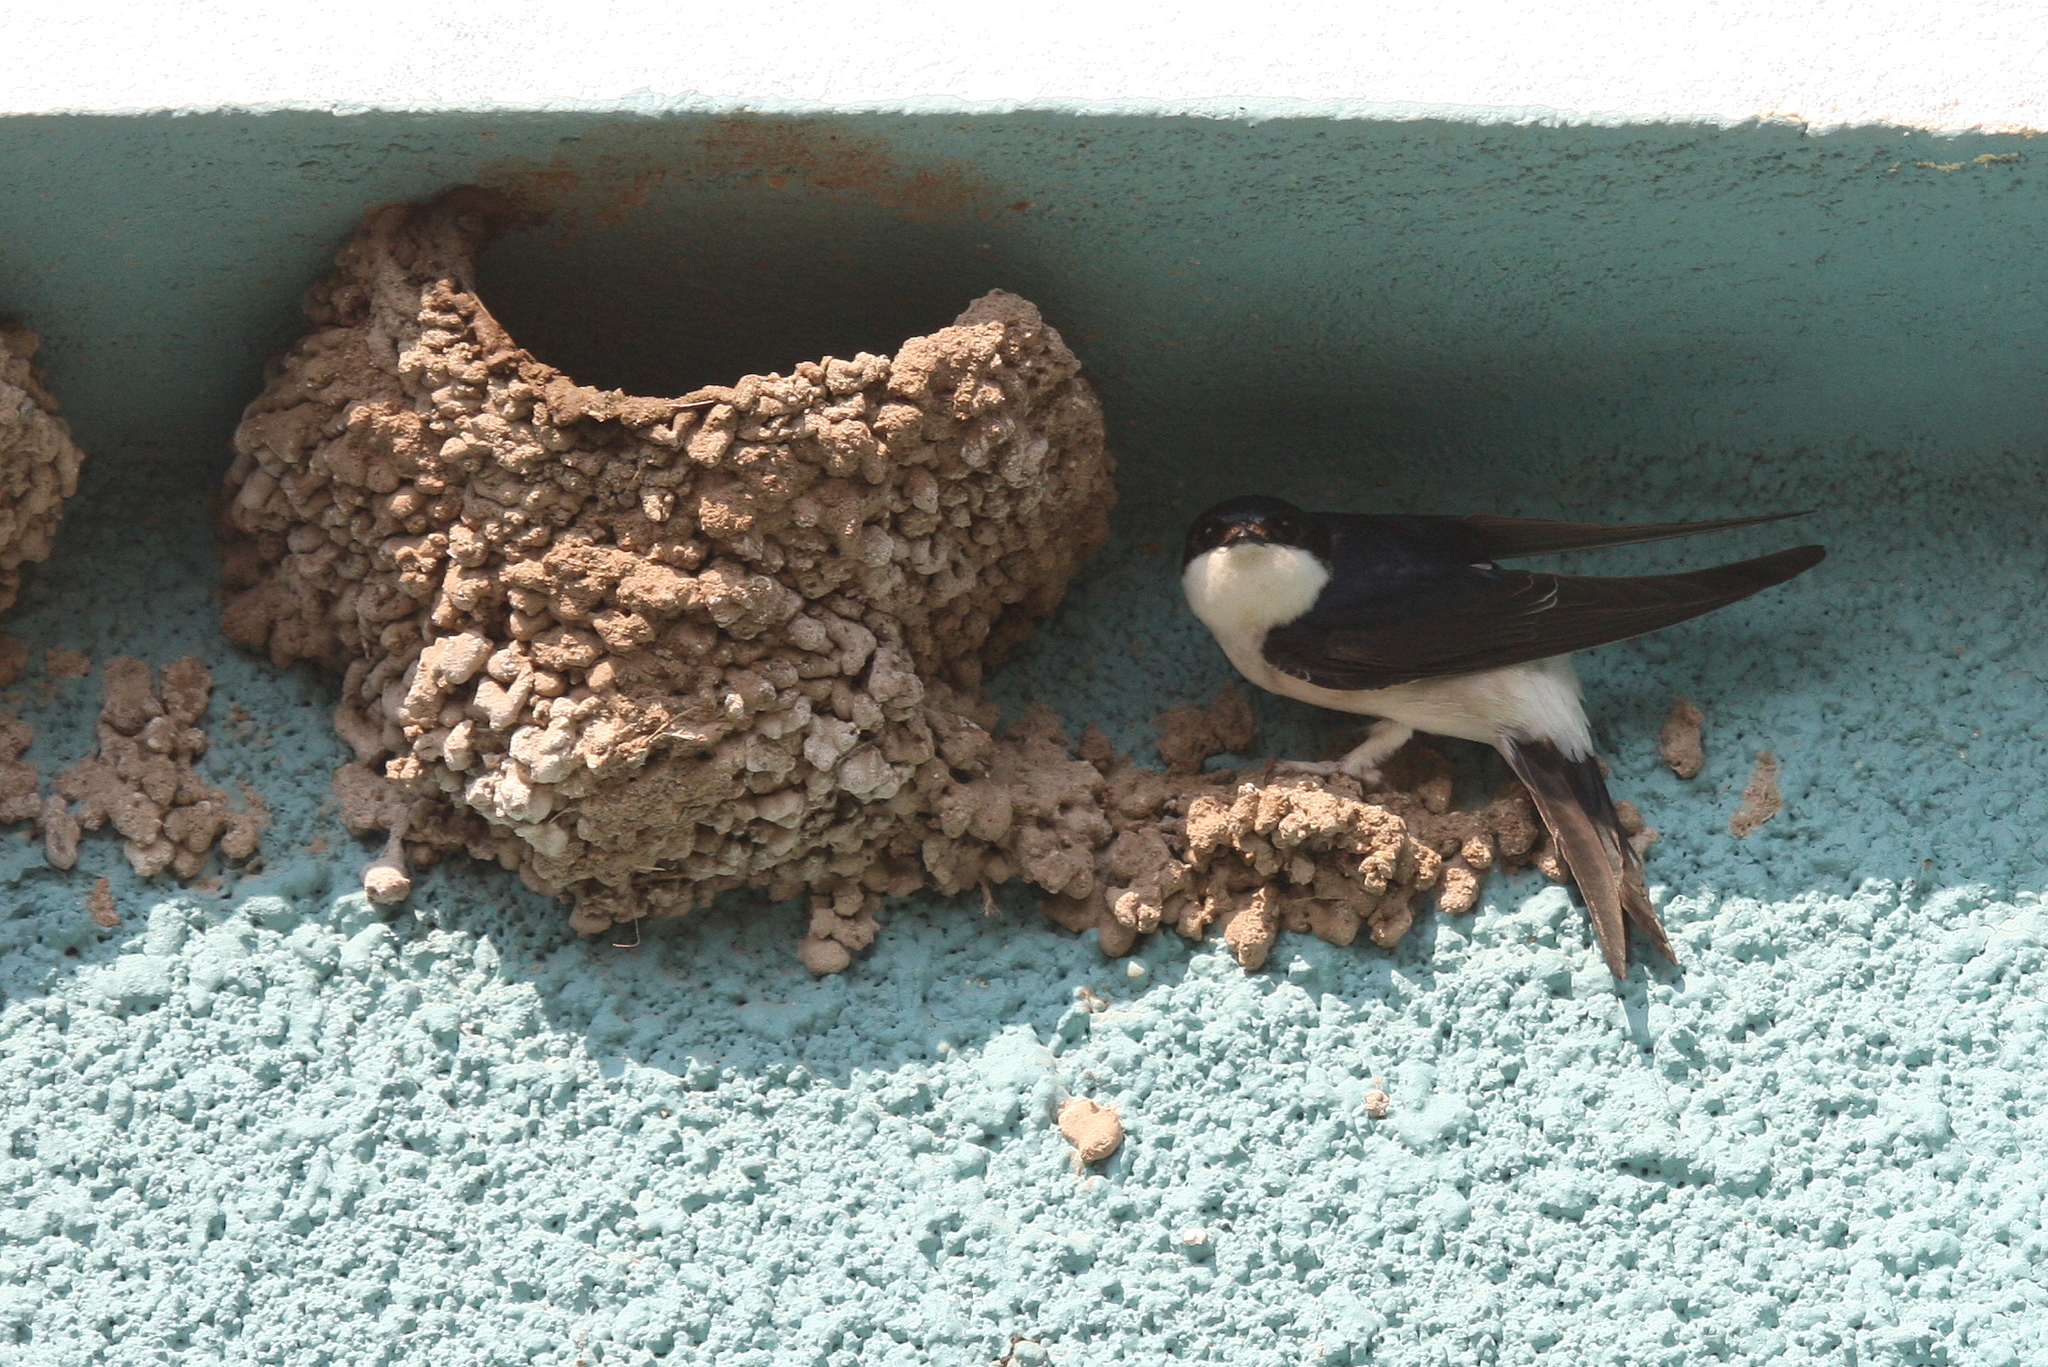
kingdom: Animalia
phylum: Chordata
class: Aves
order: Passeriformes
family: Hirundinidae
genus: Delichon
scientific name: Delichon urbicum
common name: Common house martin
